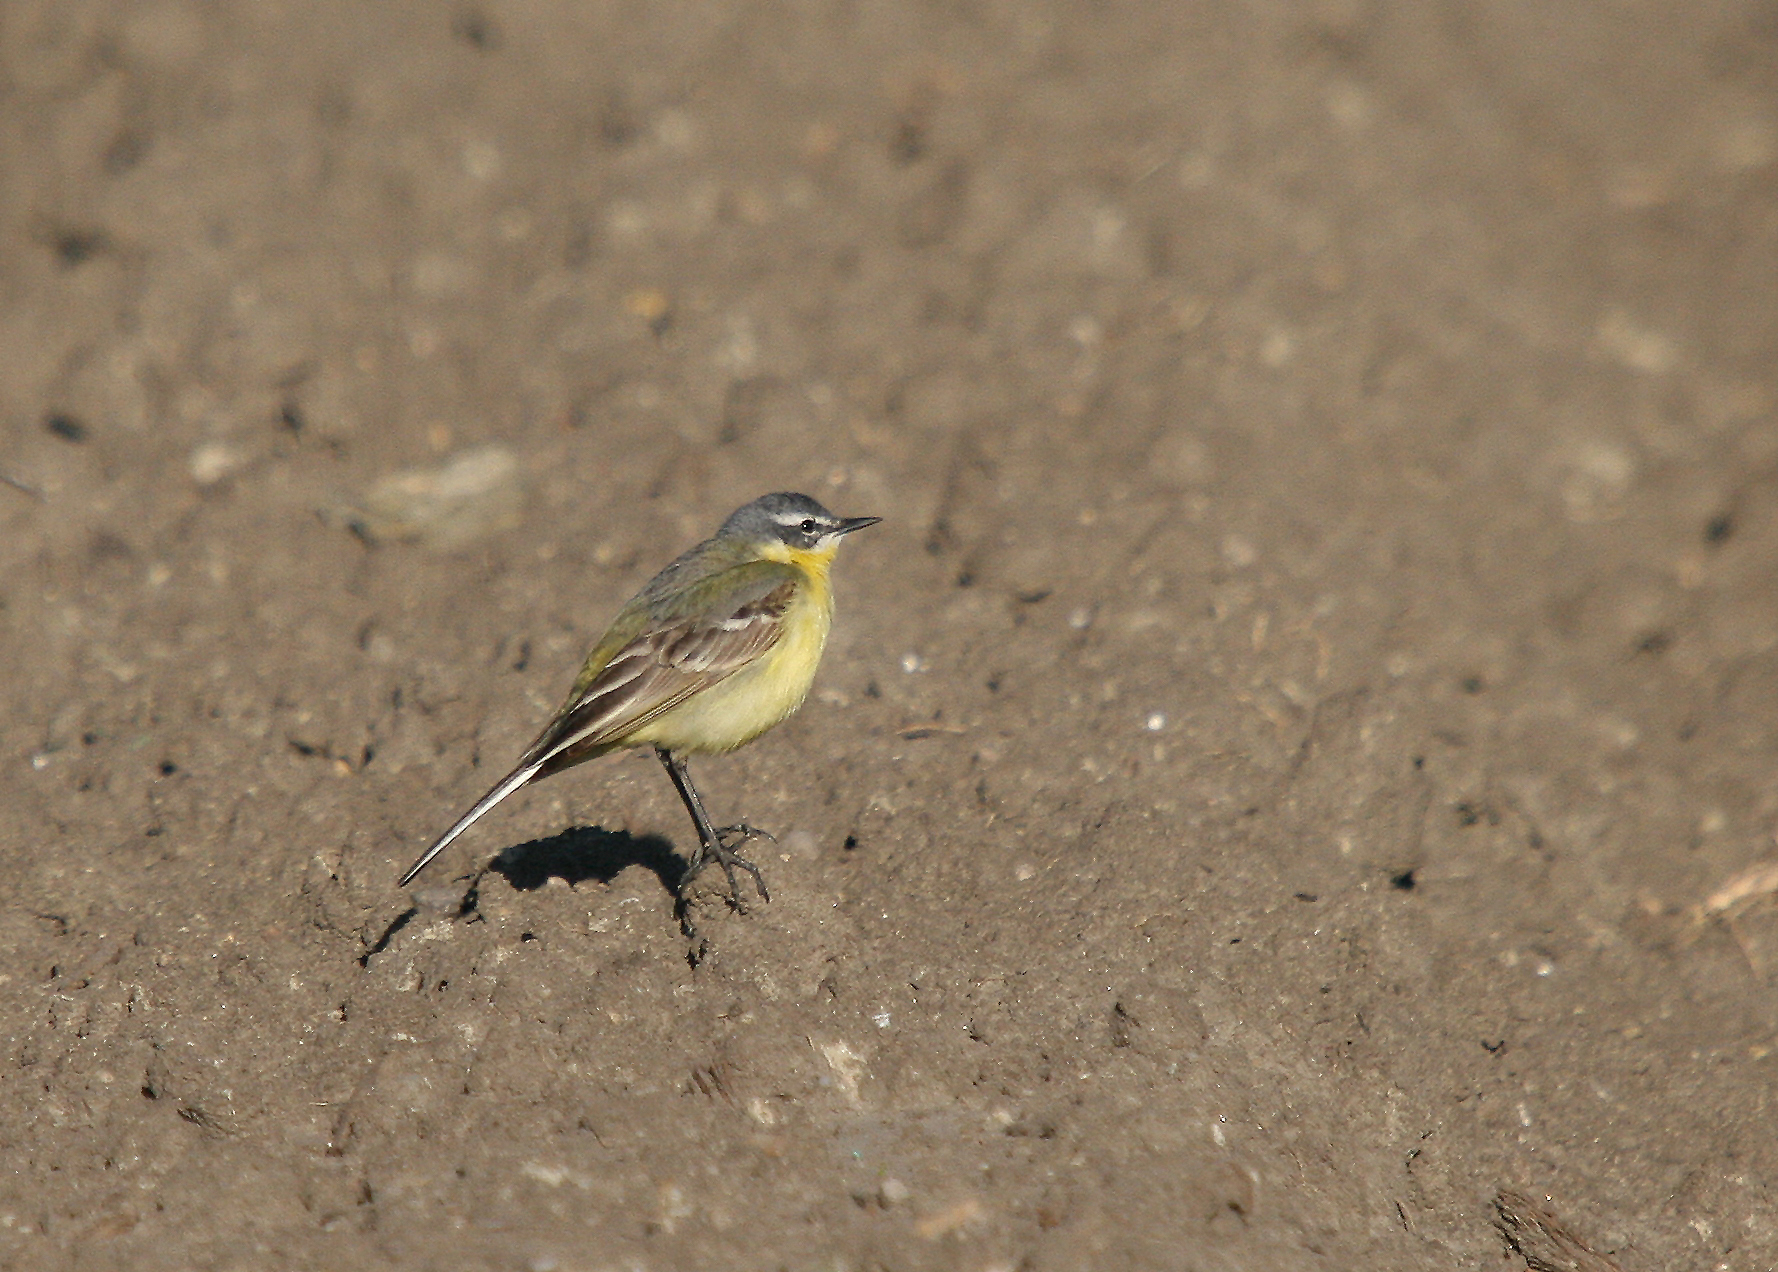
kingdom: Animalia
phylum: Chordata
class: Aves
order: Passeriformes
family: Motacillidae
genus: Motacilla
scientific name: Motacilla flava
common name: Western yellow wagtail
